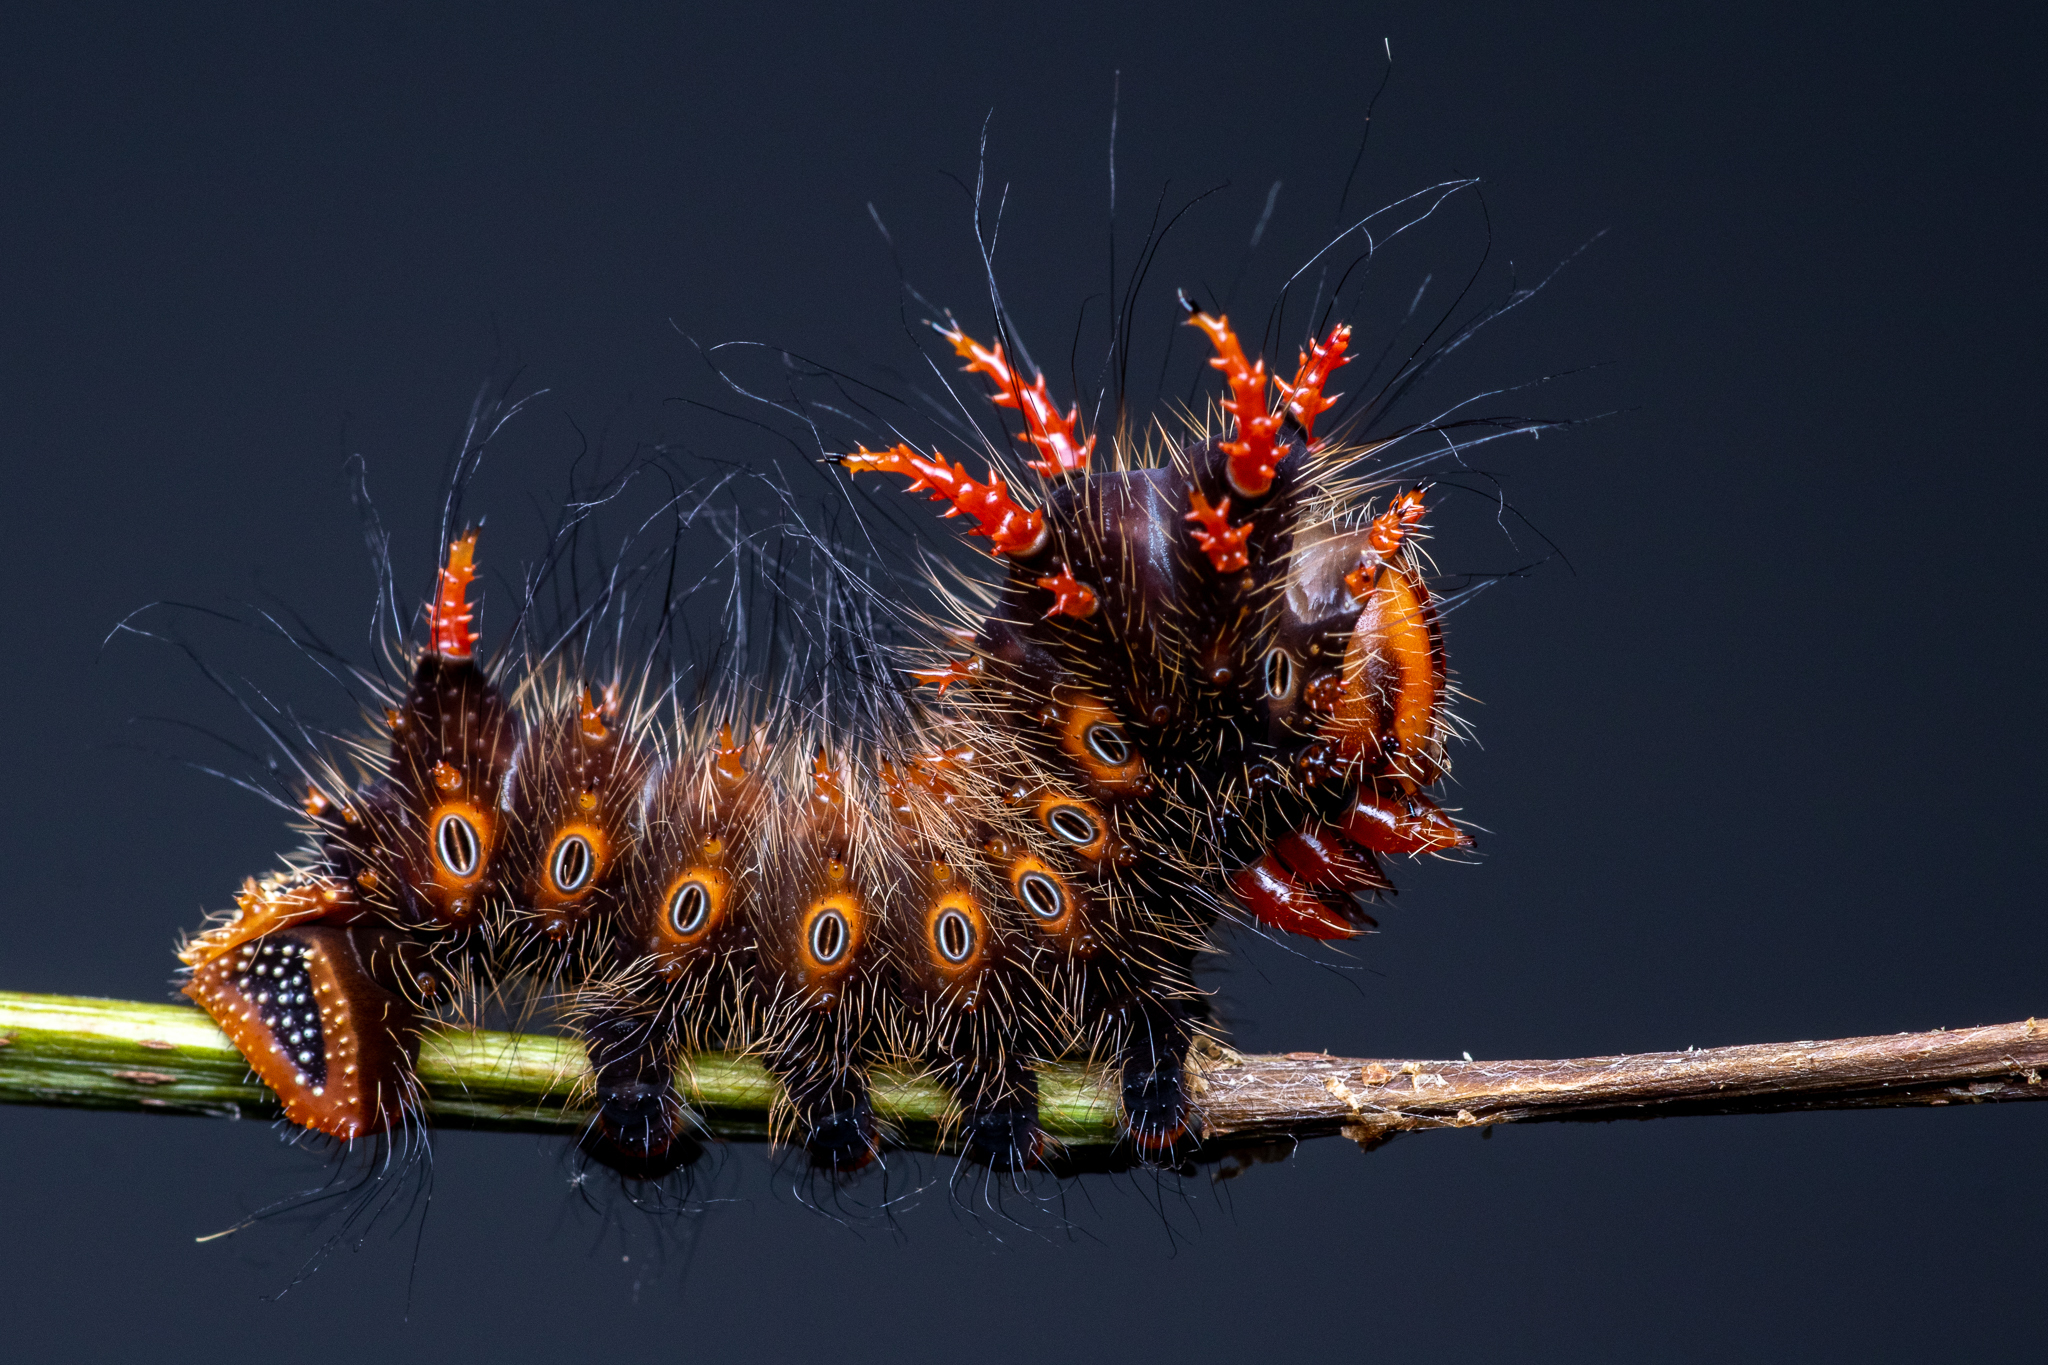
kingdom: Animalia
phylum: Arthropoda
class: Insecta
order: Lepidoptera
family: Saturniidae
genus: Eacles
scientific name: Eacles imperialis
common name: Imperial moth
